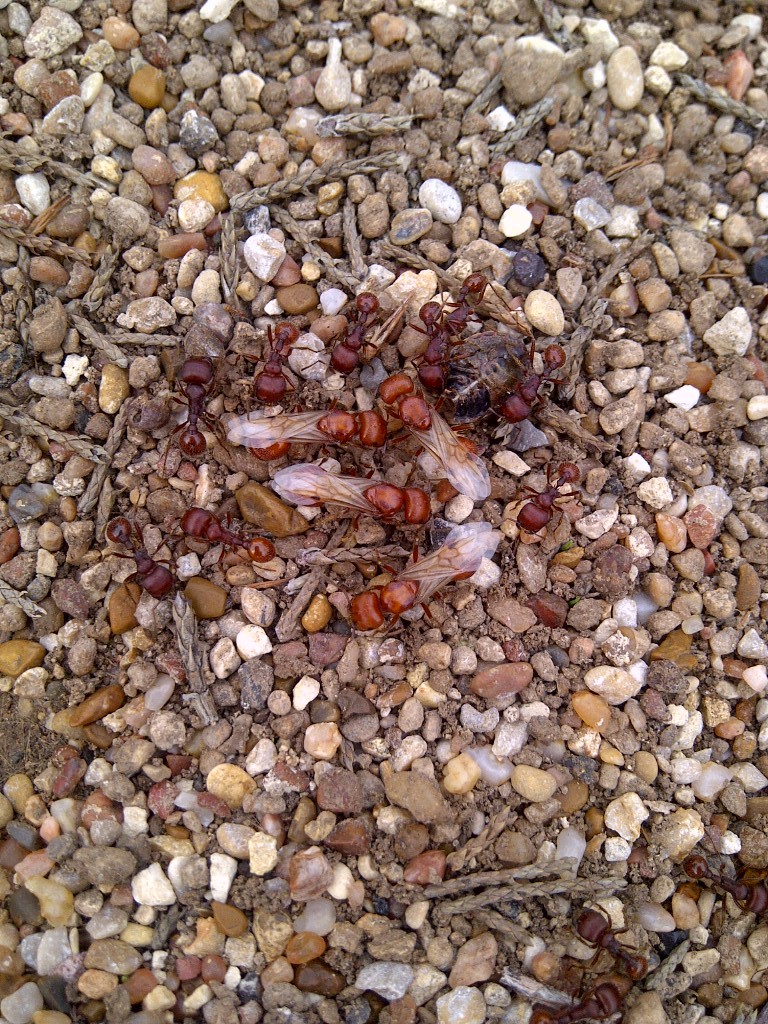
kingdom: Animalia
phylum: Arthropoda
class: Insecta
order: Hymenoptera
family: Formicidae
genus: Pogonomyrmex
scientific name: Pogonomyrmex barbatus
